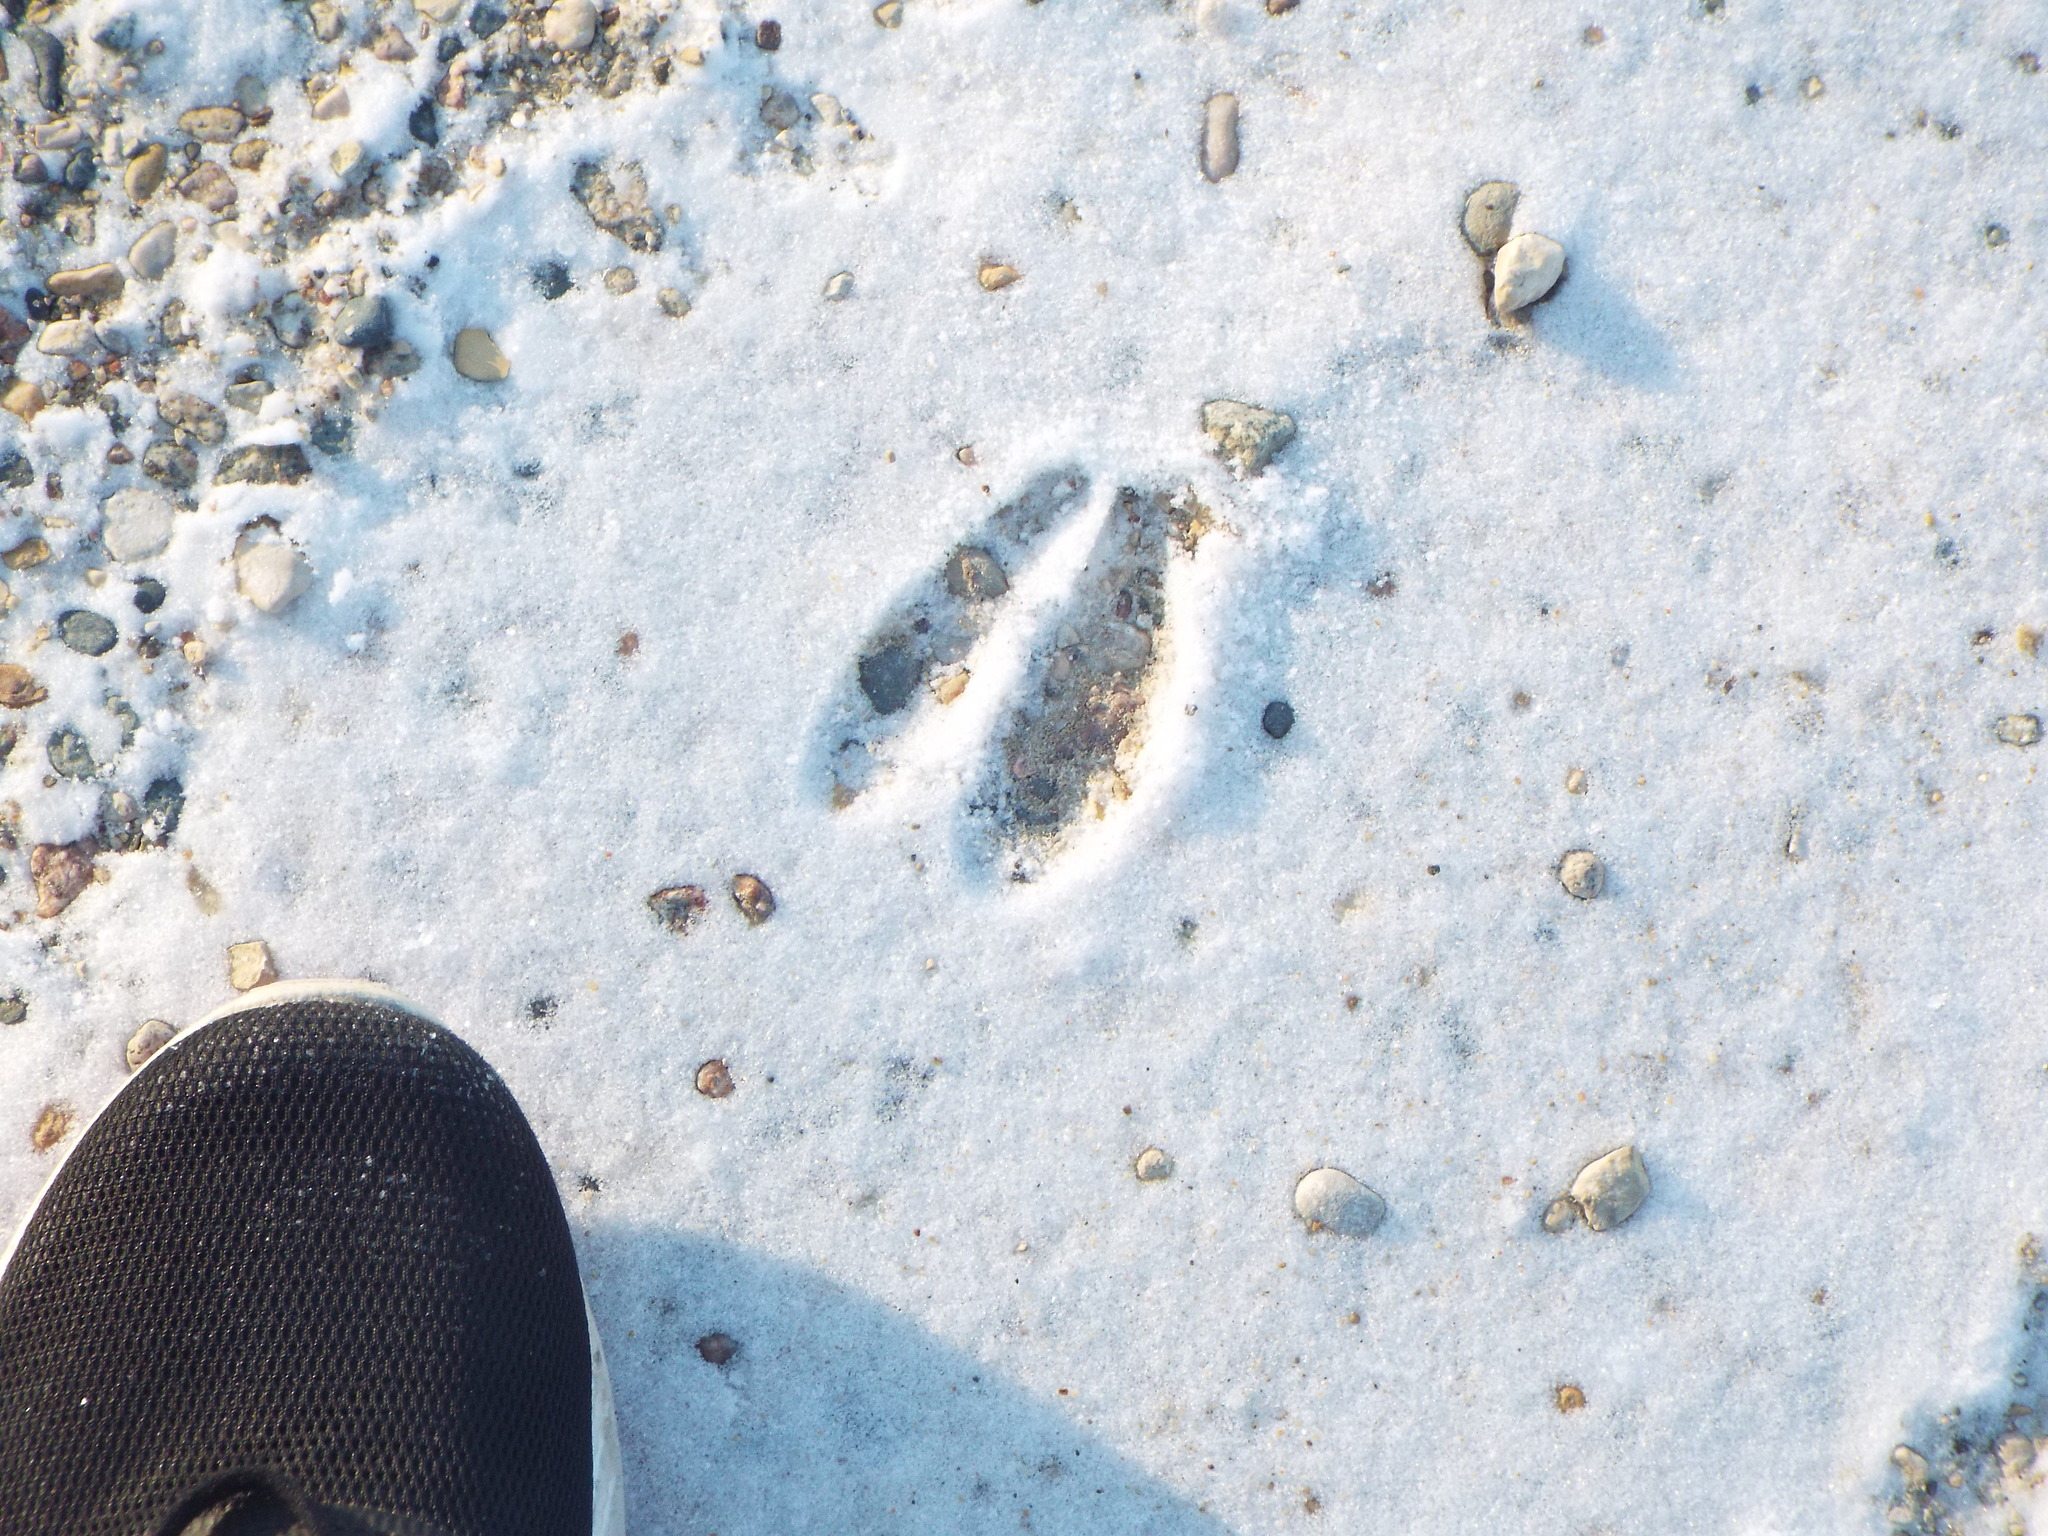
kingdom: Animalia
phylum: Chordata
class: Mammalia
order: Artiodactyla
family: Cervidae
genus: Odocoileus
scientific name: Odocoileus virginianus
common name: White-tailed deer
